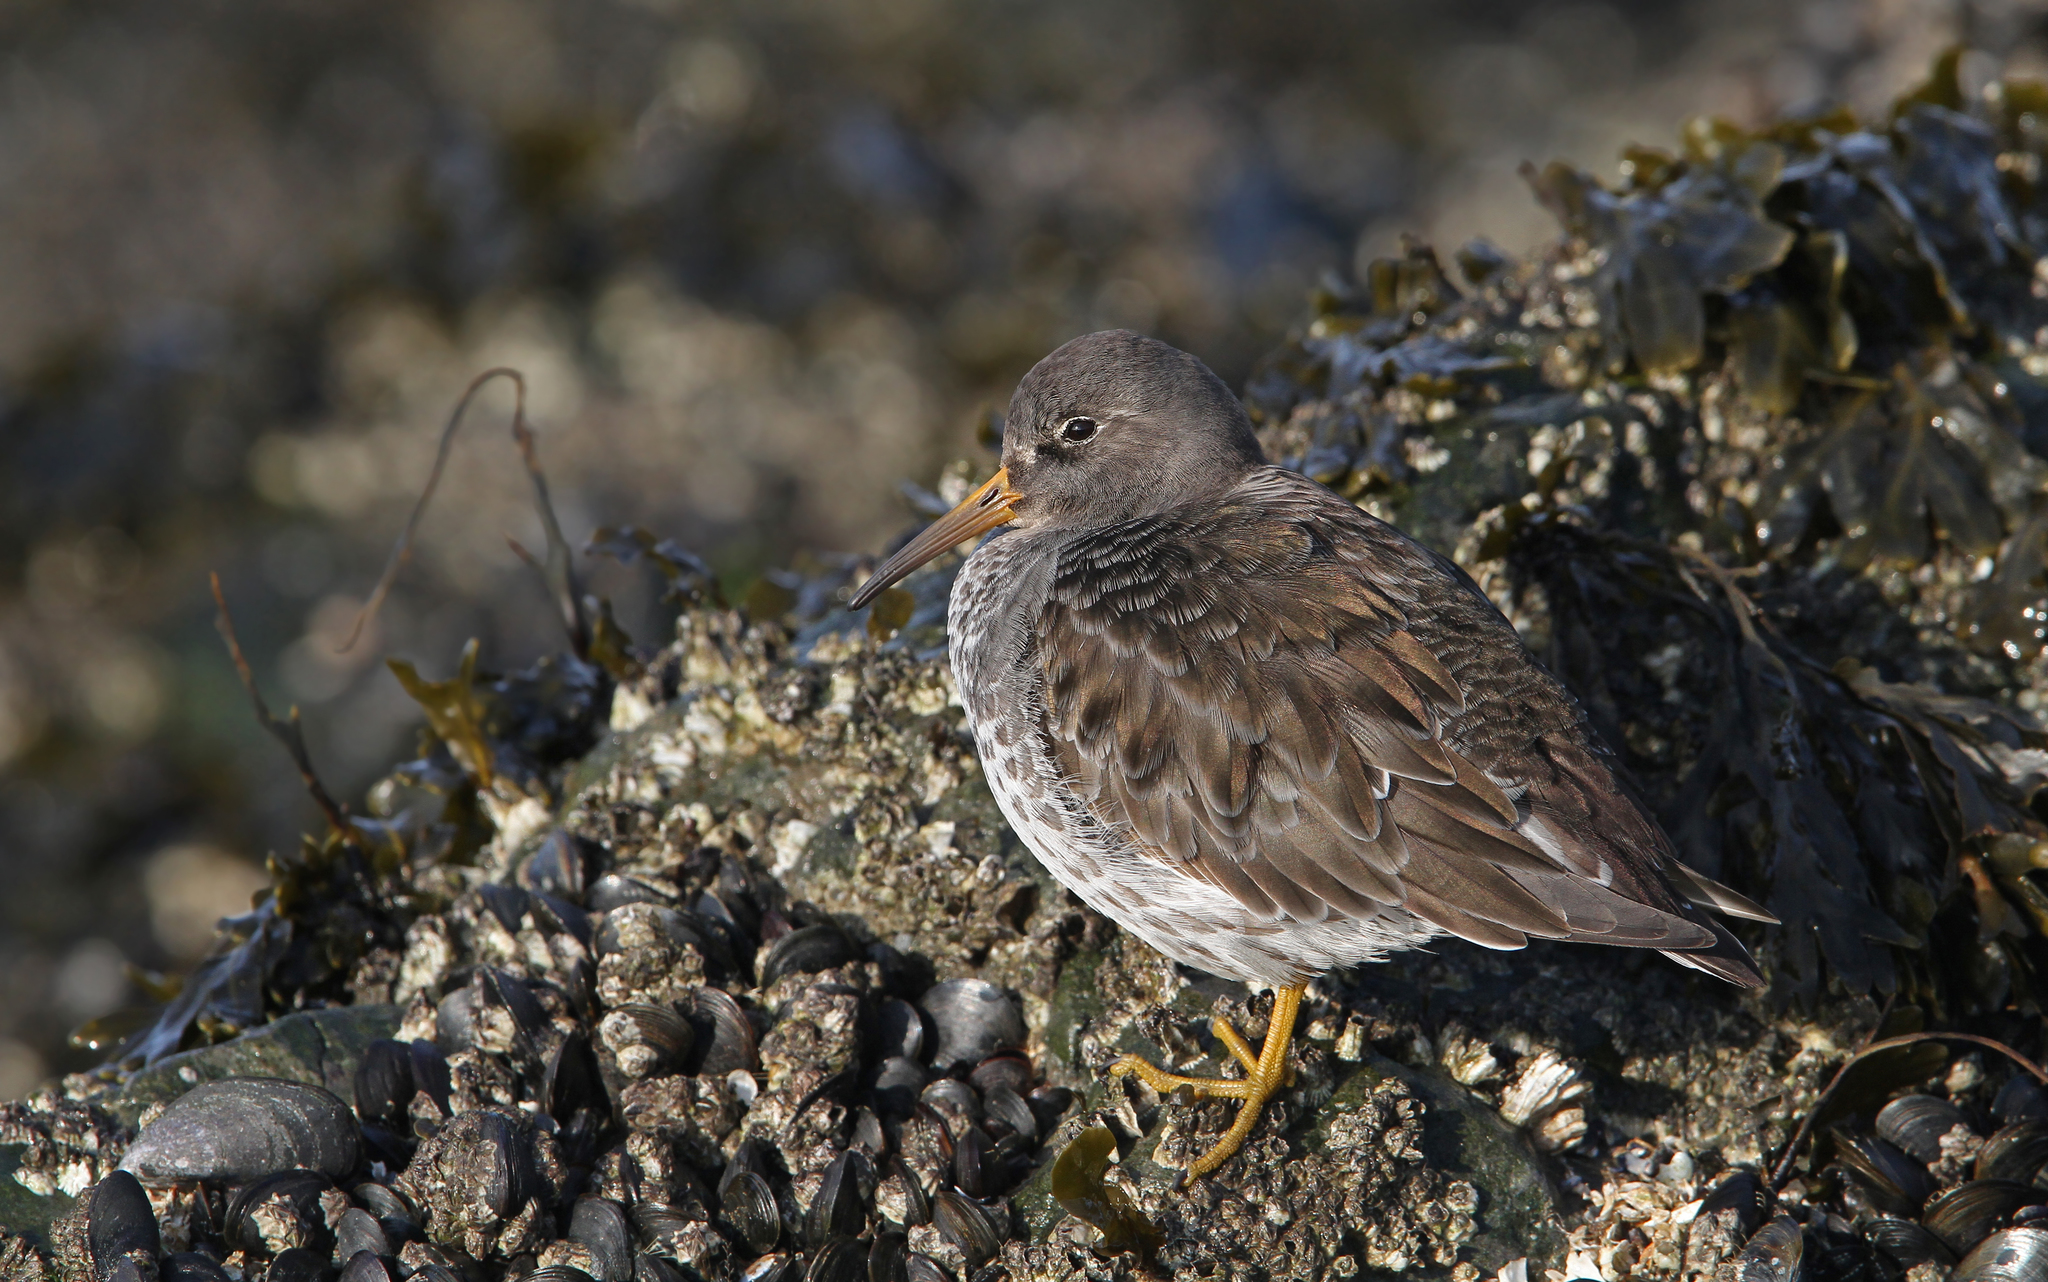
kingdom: Animalia
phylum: Chordata
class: Aves
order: Charadriiformes
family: Scolopacidae
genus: Calidris
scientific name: Calidris maritima
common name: Purple sandpiper
